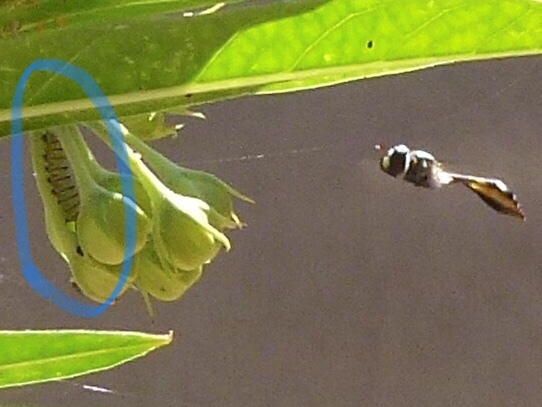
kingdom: Animalia
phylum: Arthropoda
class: Insecta
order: Lepidoptera
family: Nymphalidae
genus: Danaus
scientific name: Danaus plexippus
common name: Monarch
